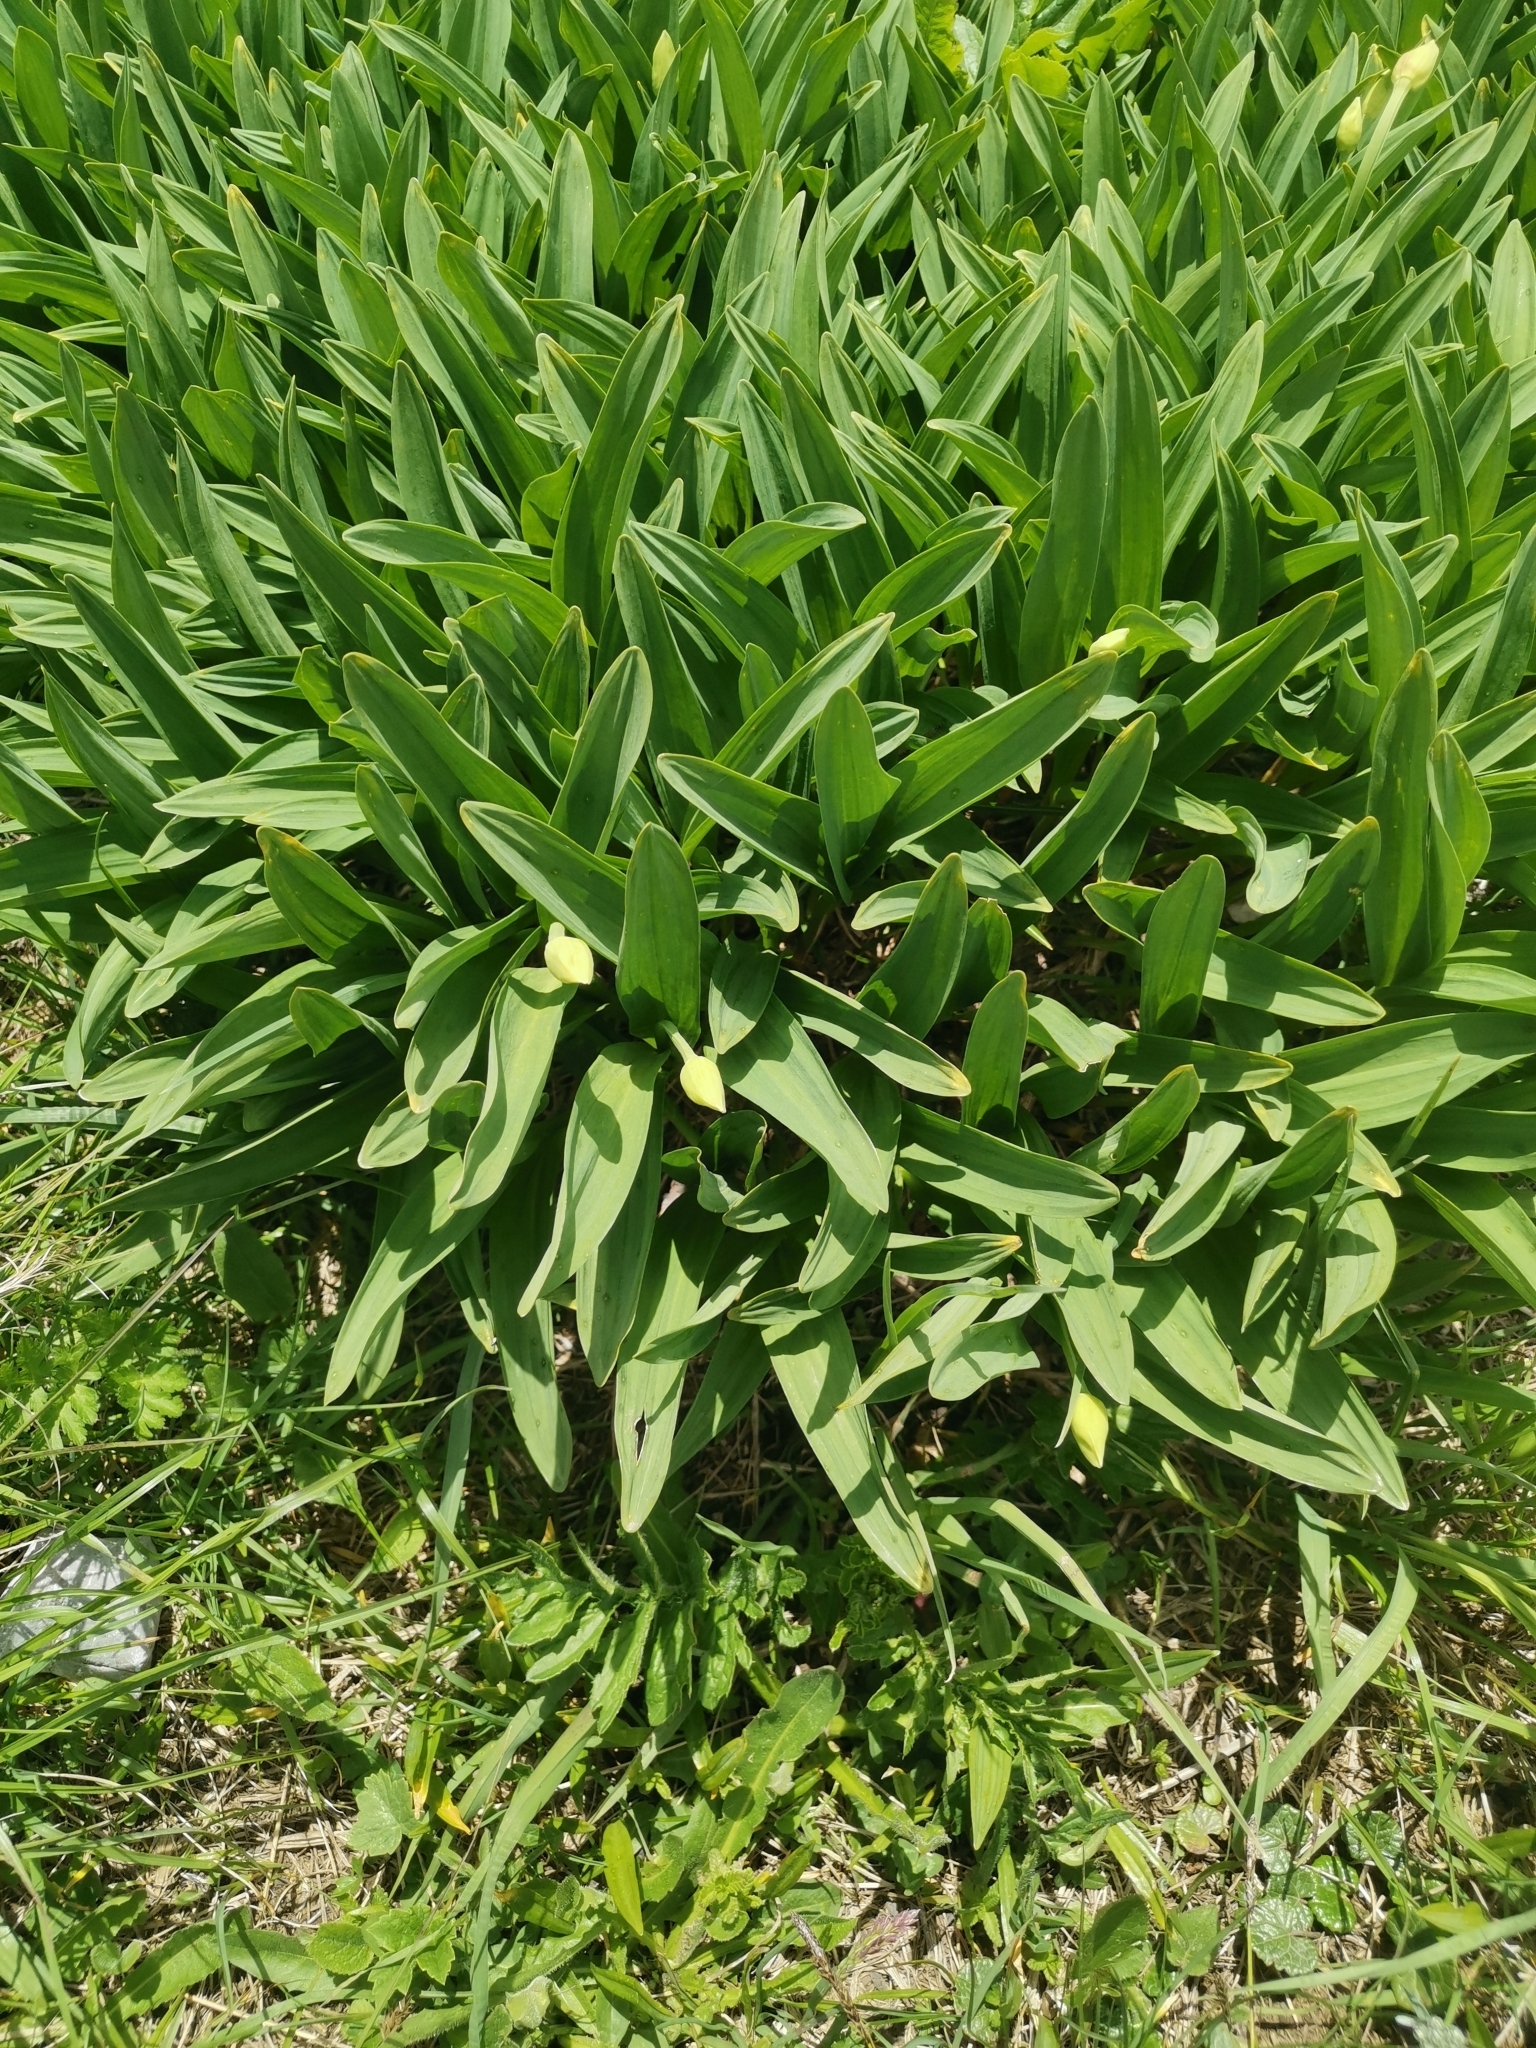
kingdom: Plantae
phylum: Tracheophyta
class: Liliopsida
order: Asparagales
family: Amaryllidaceae
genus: Allium
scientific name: Allium victorialis
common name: Alpine leek
